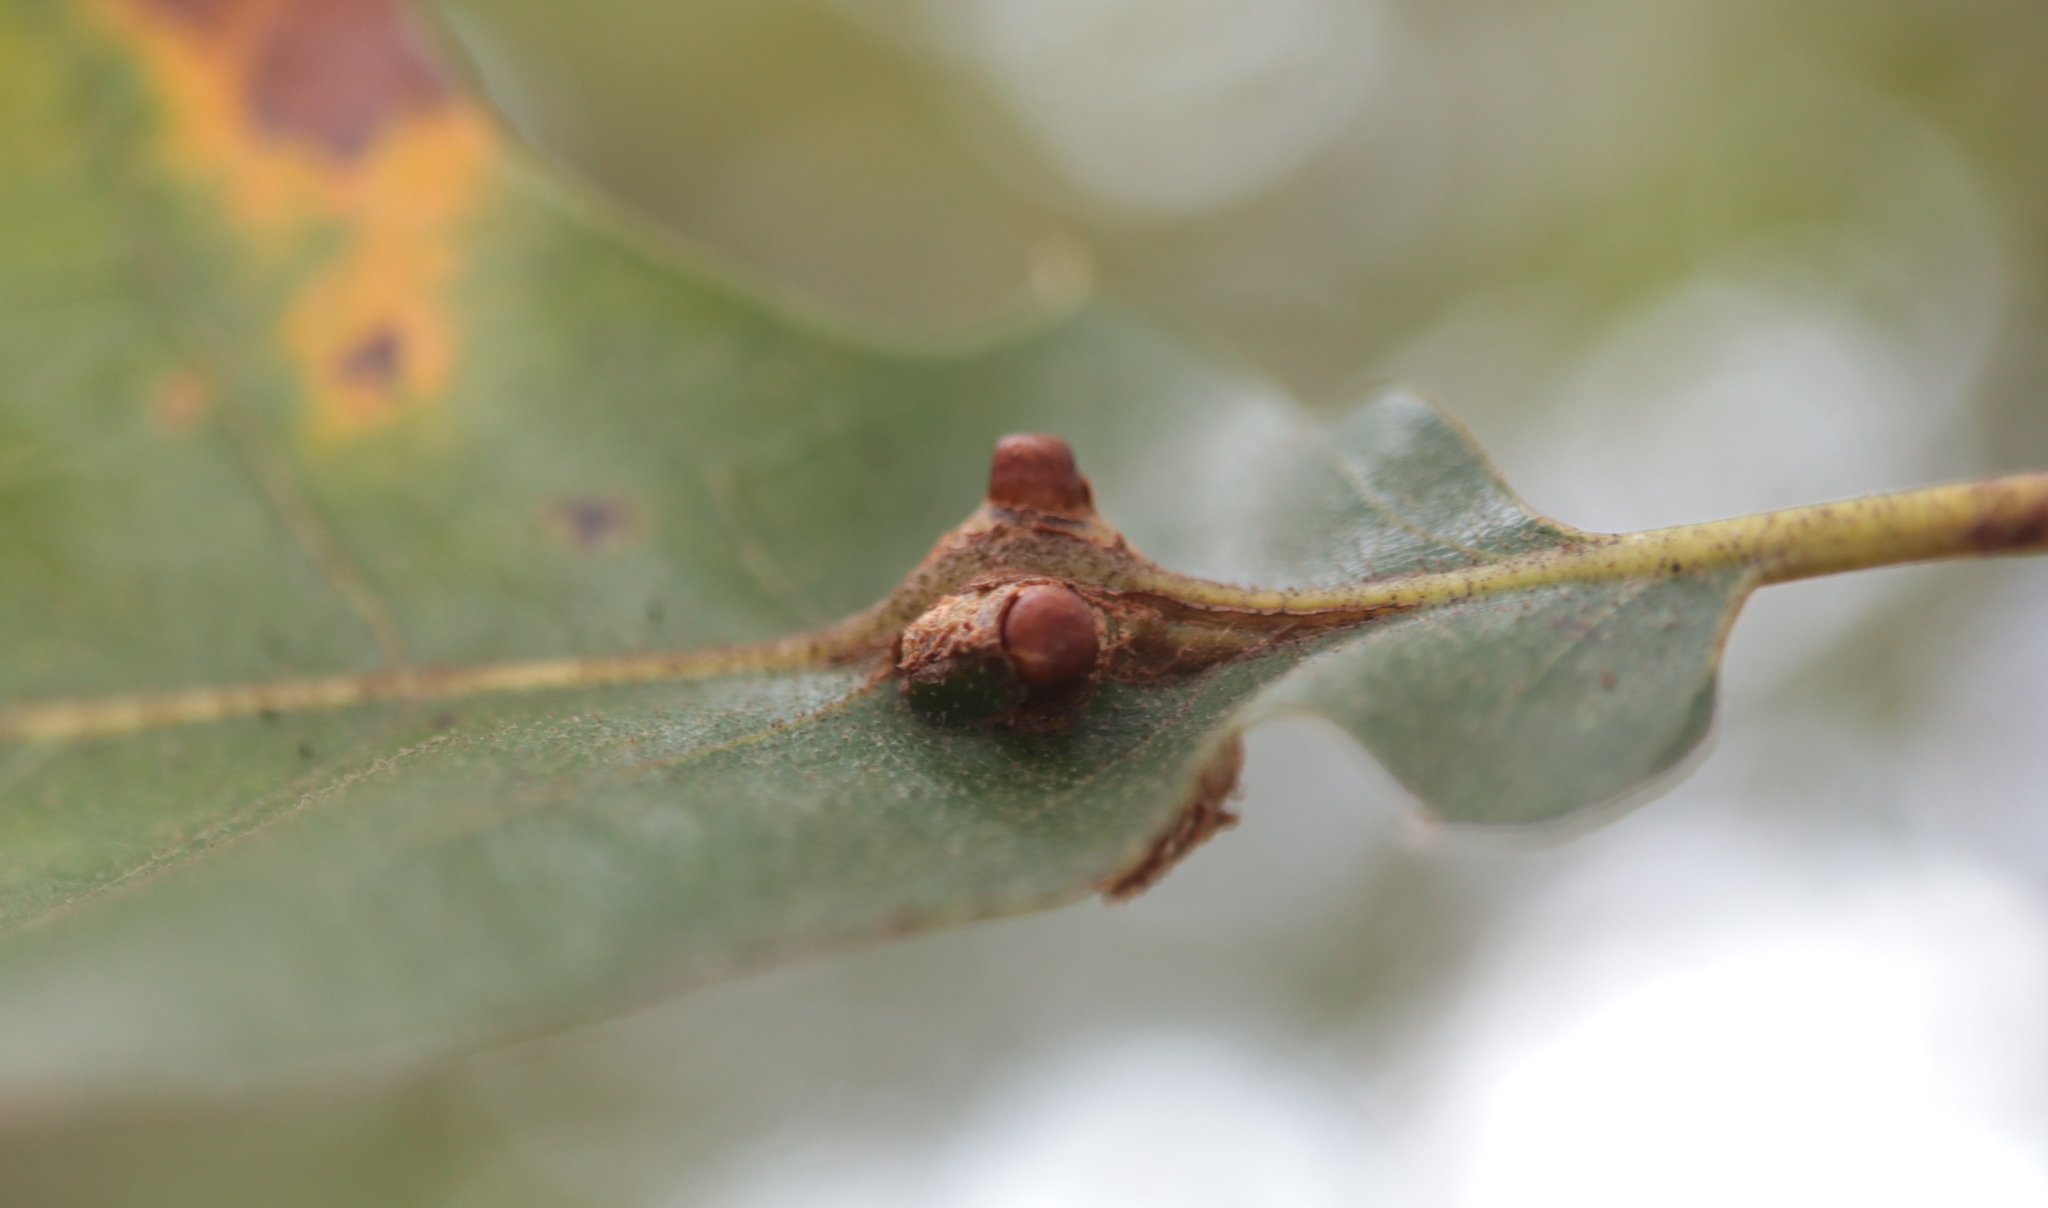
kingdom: Animalia
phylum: Arthropoda
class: Insecta
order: Hymenoptera
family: Cynipidae
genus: Kokkocynips
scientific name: Kokkocynips decidua
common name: Oak wheat gall
